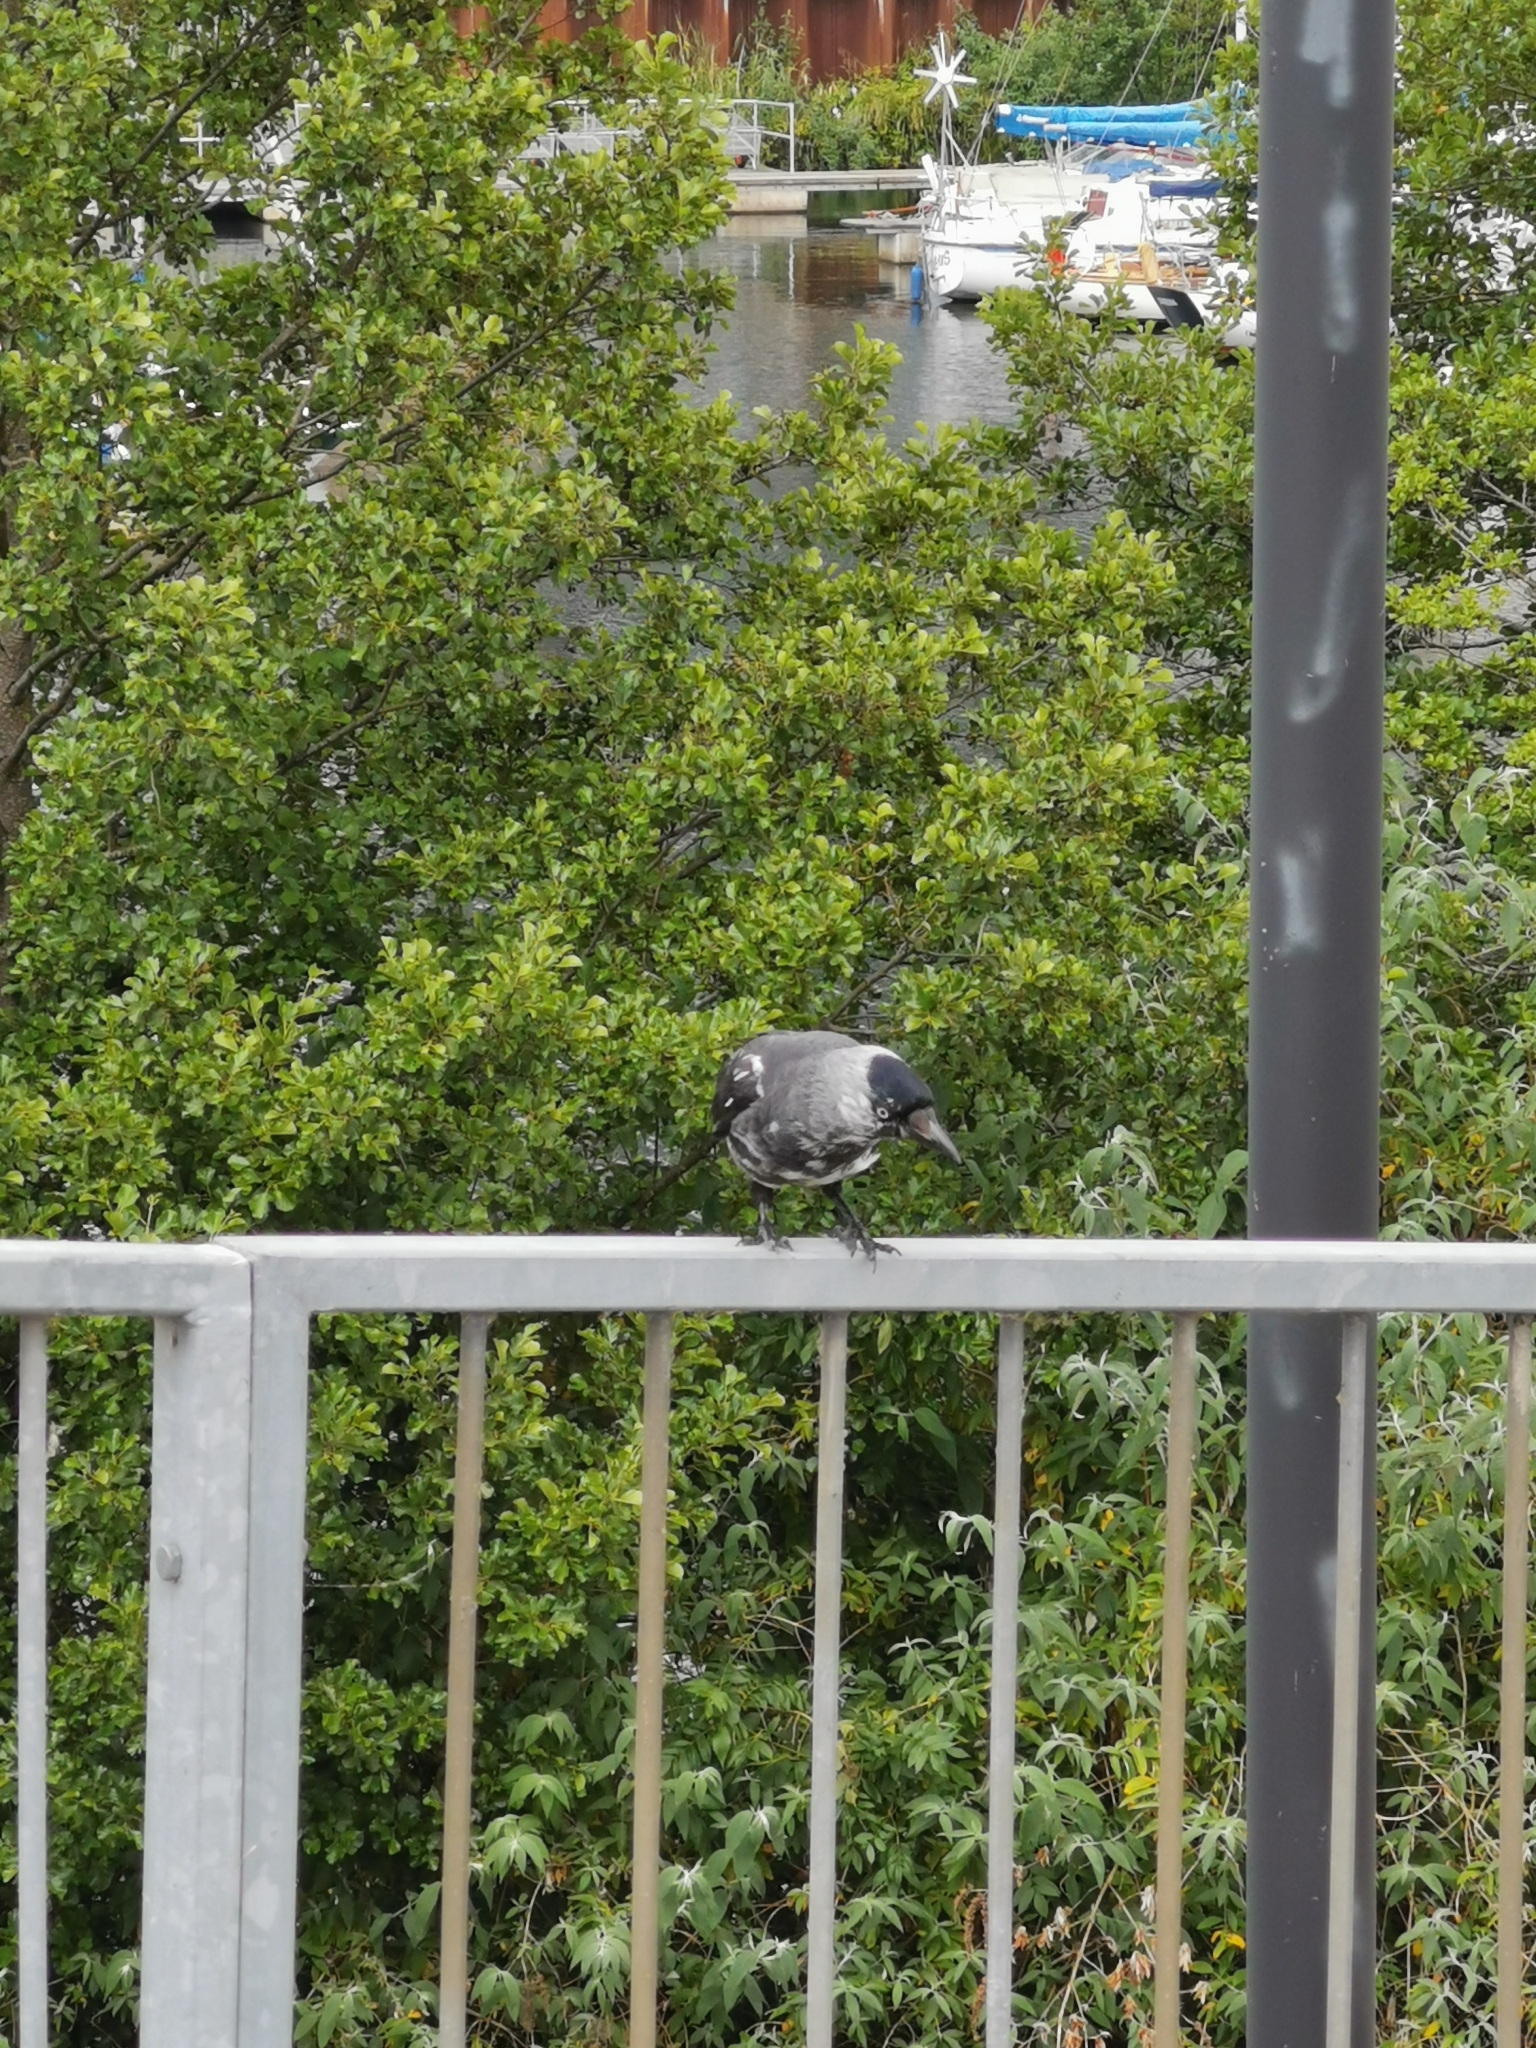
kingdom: Animalia
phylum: Chordata
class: Aves
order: Passeriformes
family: Corvidae
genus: Coloeus
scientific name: Coloeus monedula
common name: Western jackdaw
